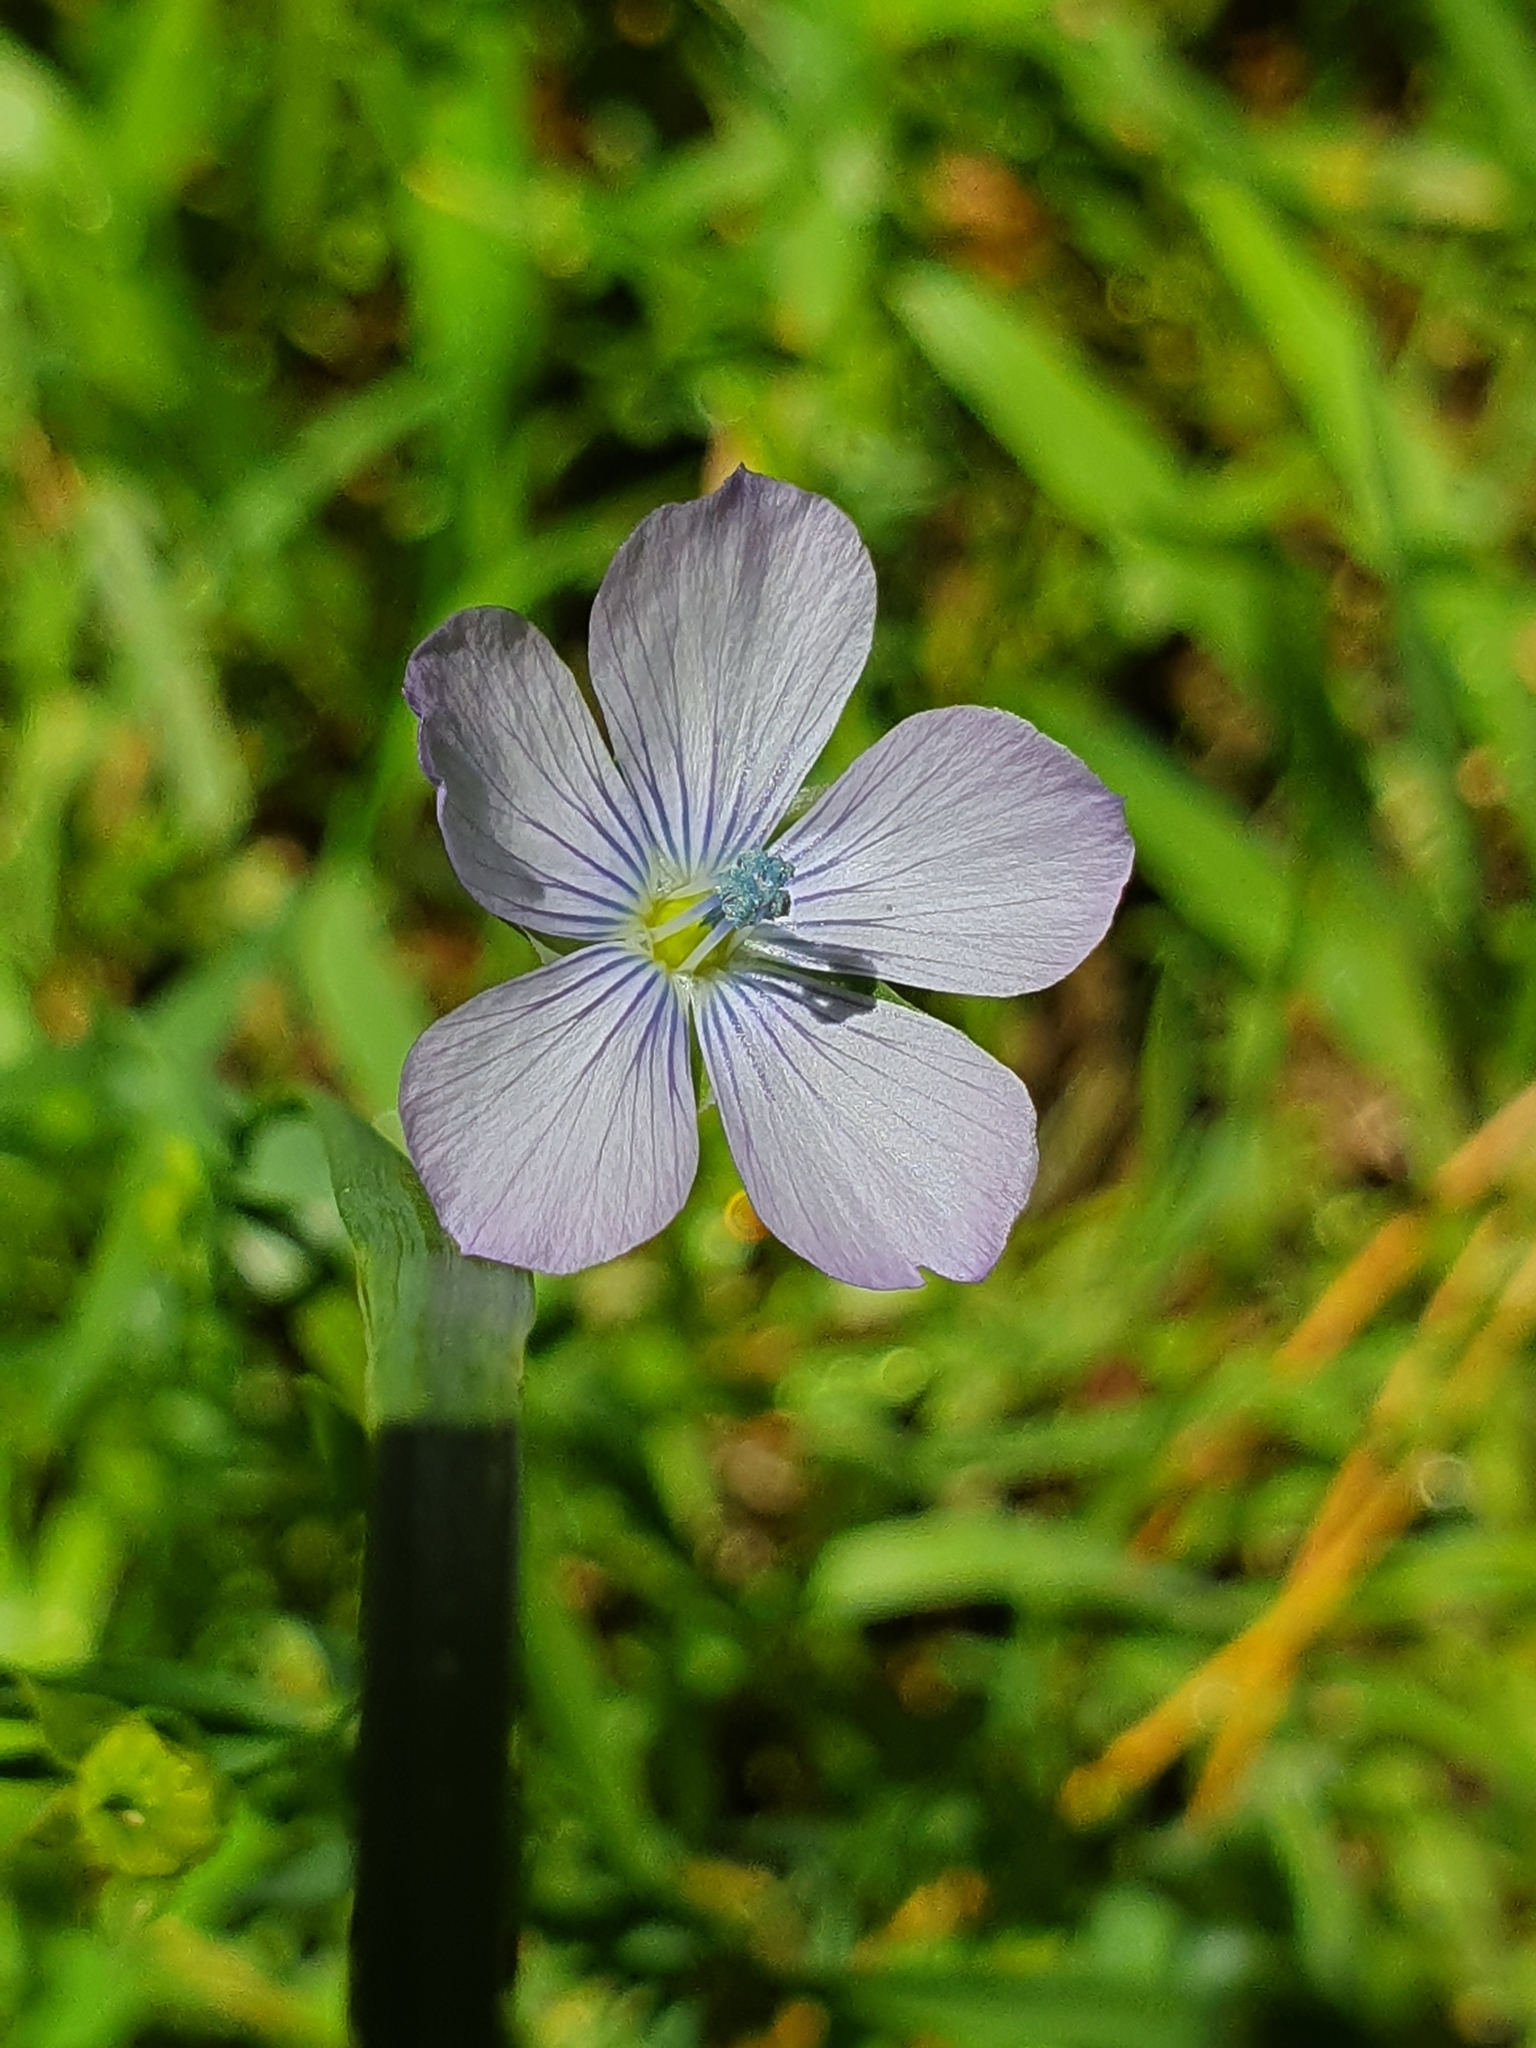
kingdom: Plantae
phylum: Tracheophyta
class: Magnoliopsida
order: Malpighiales
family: Linaceae
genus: Linum
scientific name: Linum bienne
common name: Pale flax
